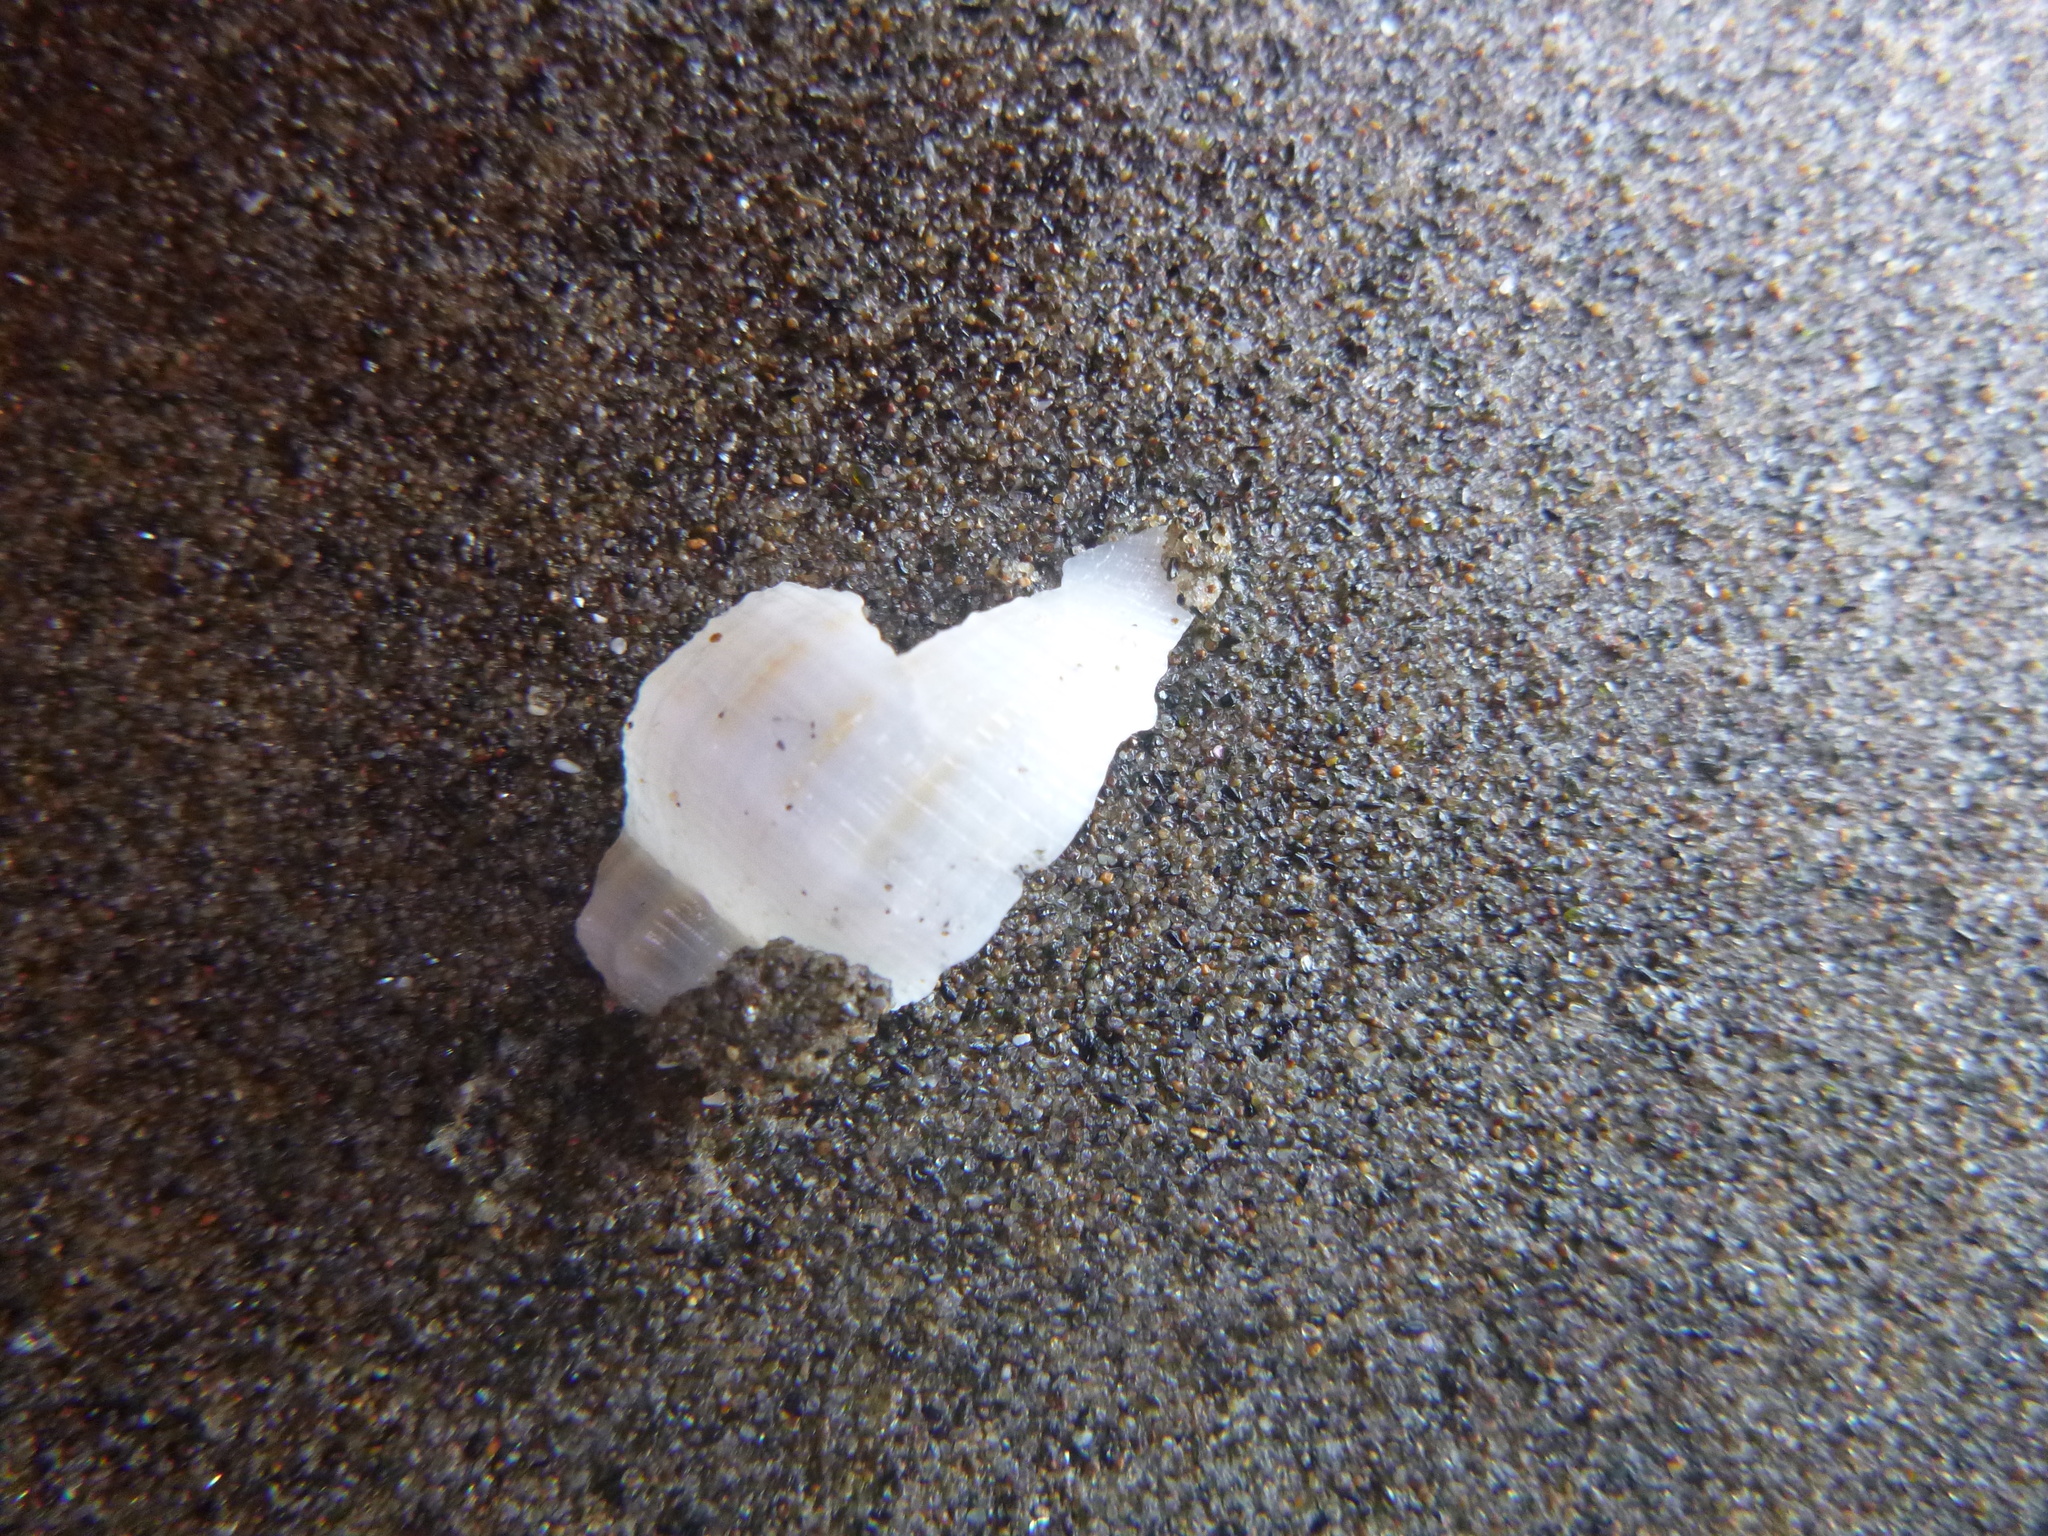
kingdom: Animalia
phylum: Mollusca
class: Gastropoda
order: Neogastropoda
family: Prosiphonidae
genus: Austrofusus
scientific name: Austrofusus glans
